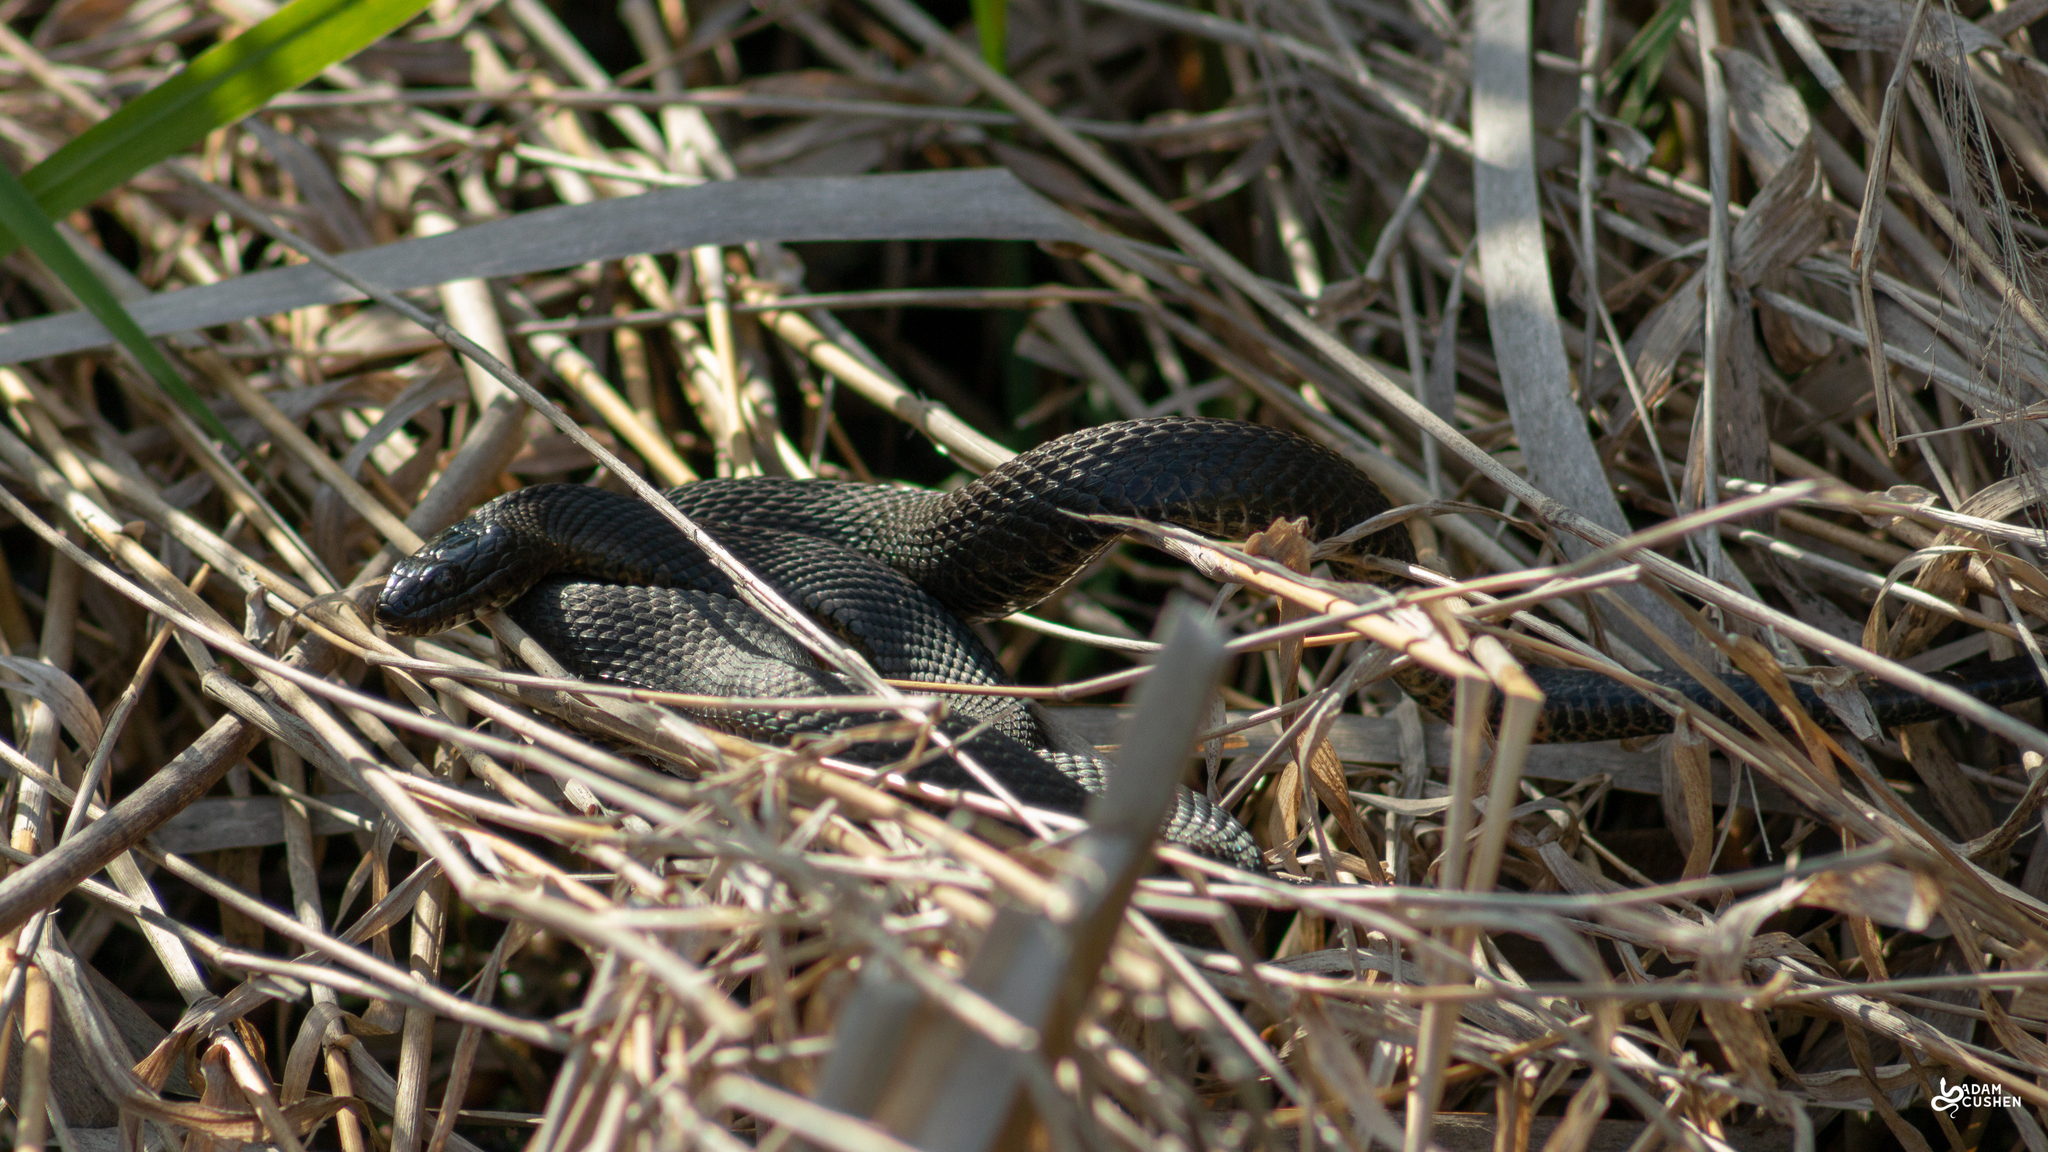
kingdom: Animalia
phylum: Chordata
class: Squamata
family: Colubridae
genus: Nerodia
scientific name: Nerodia sipedon
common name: Northern water snake
